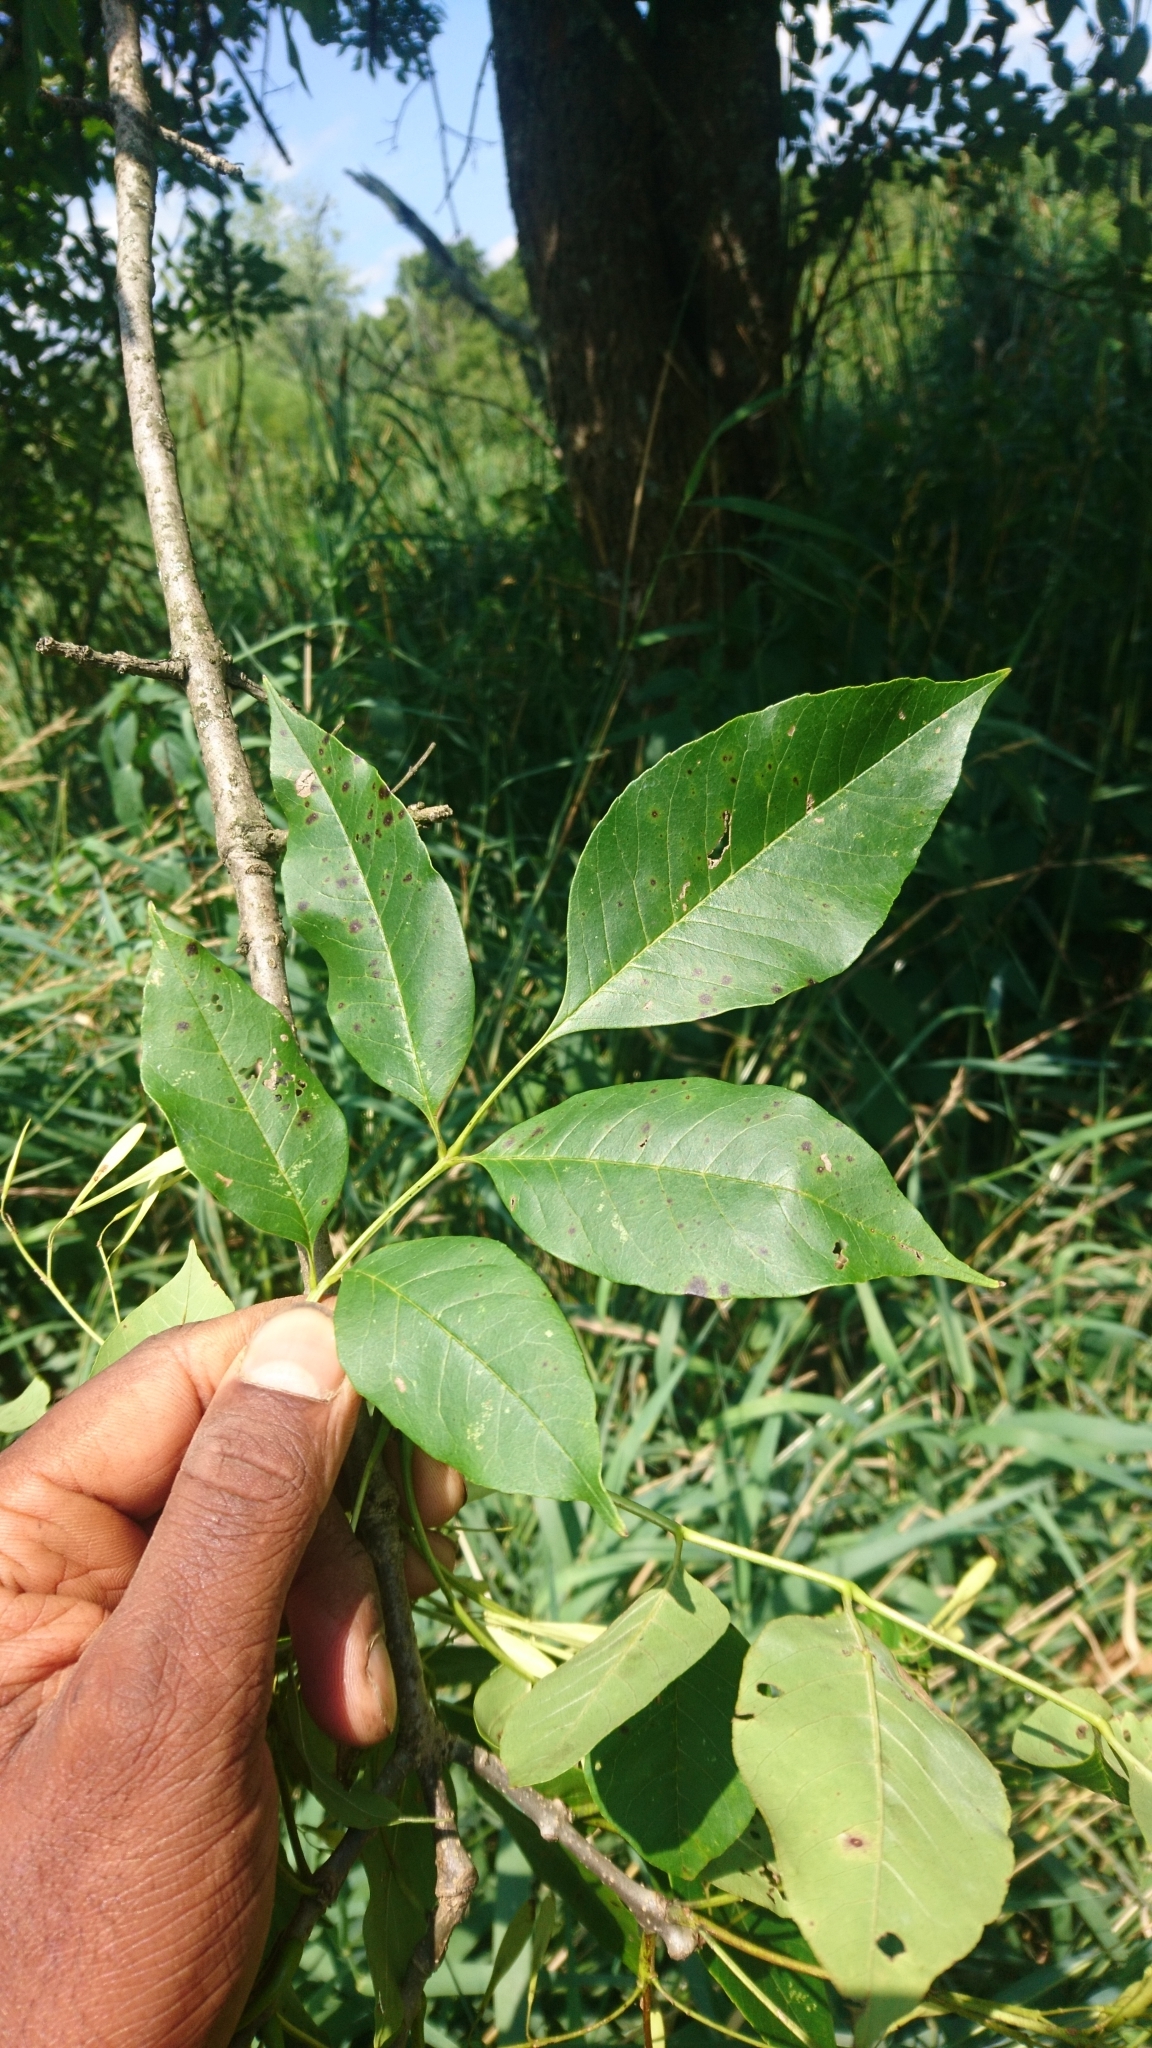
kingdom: Plantae
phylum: Tracheophyta
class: Magnoliopsida
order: Lamiales
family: Oleaceae
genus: Fraxinus
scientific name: Fraxinus pennsylvanica
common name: Green ash
